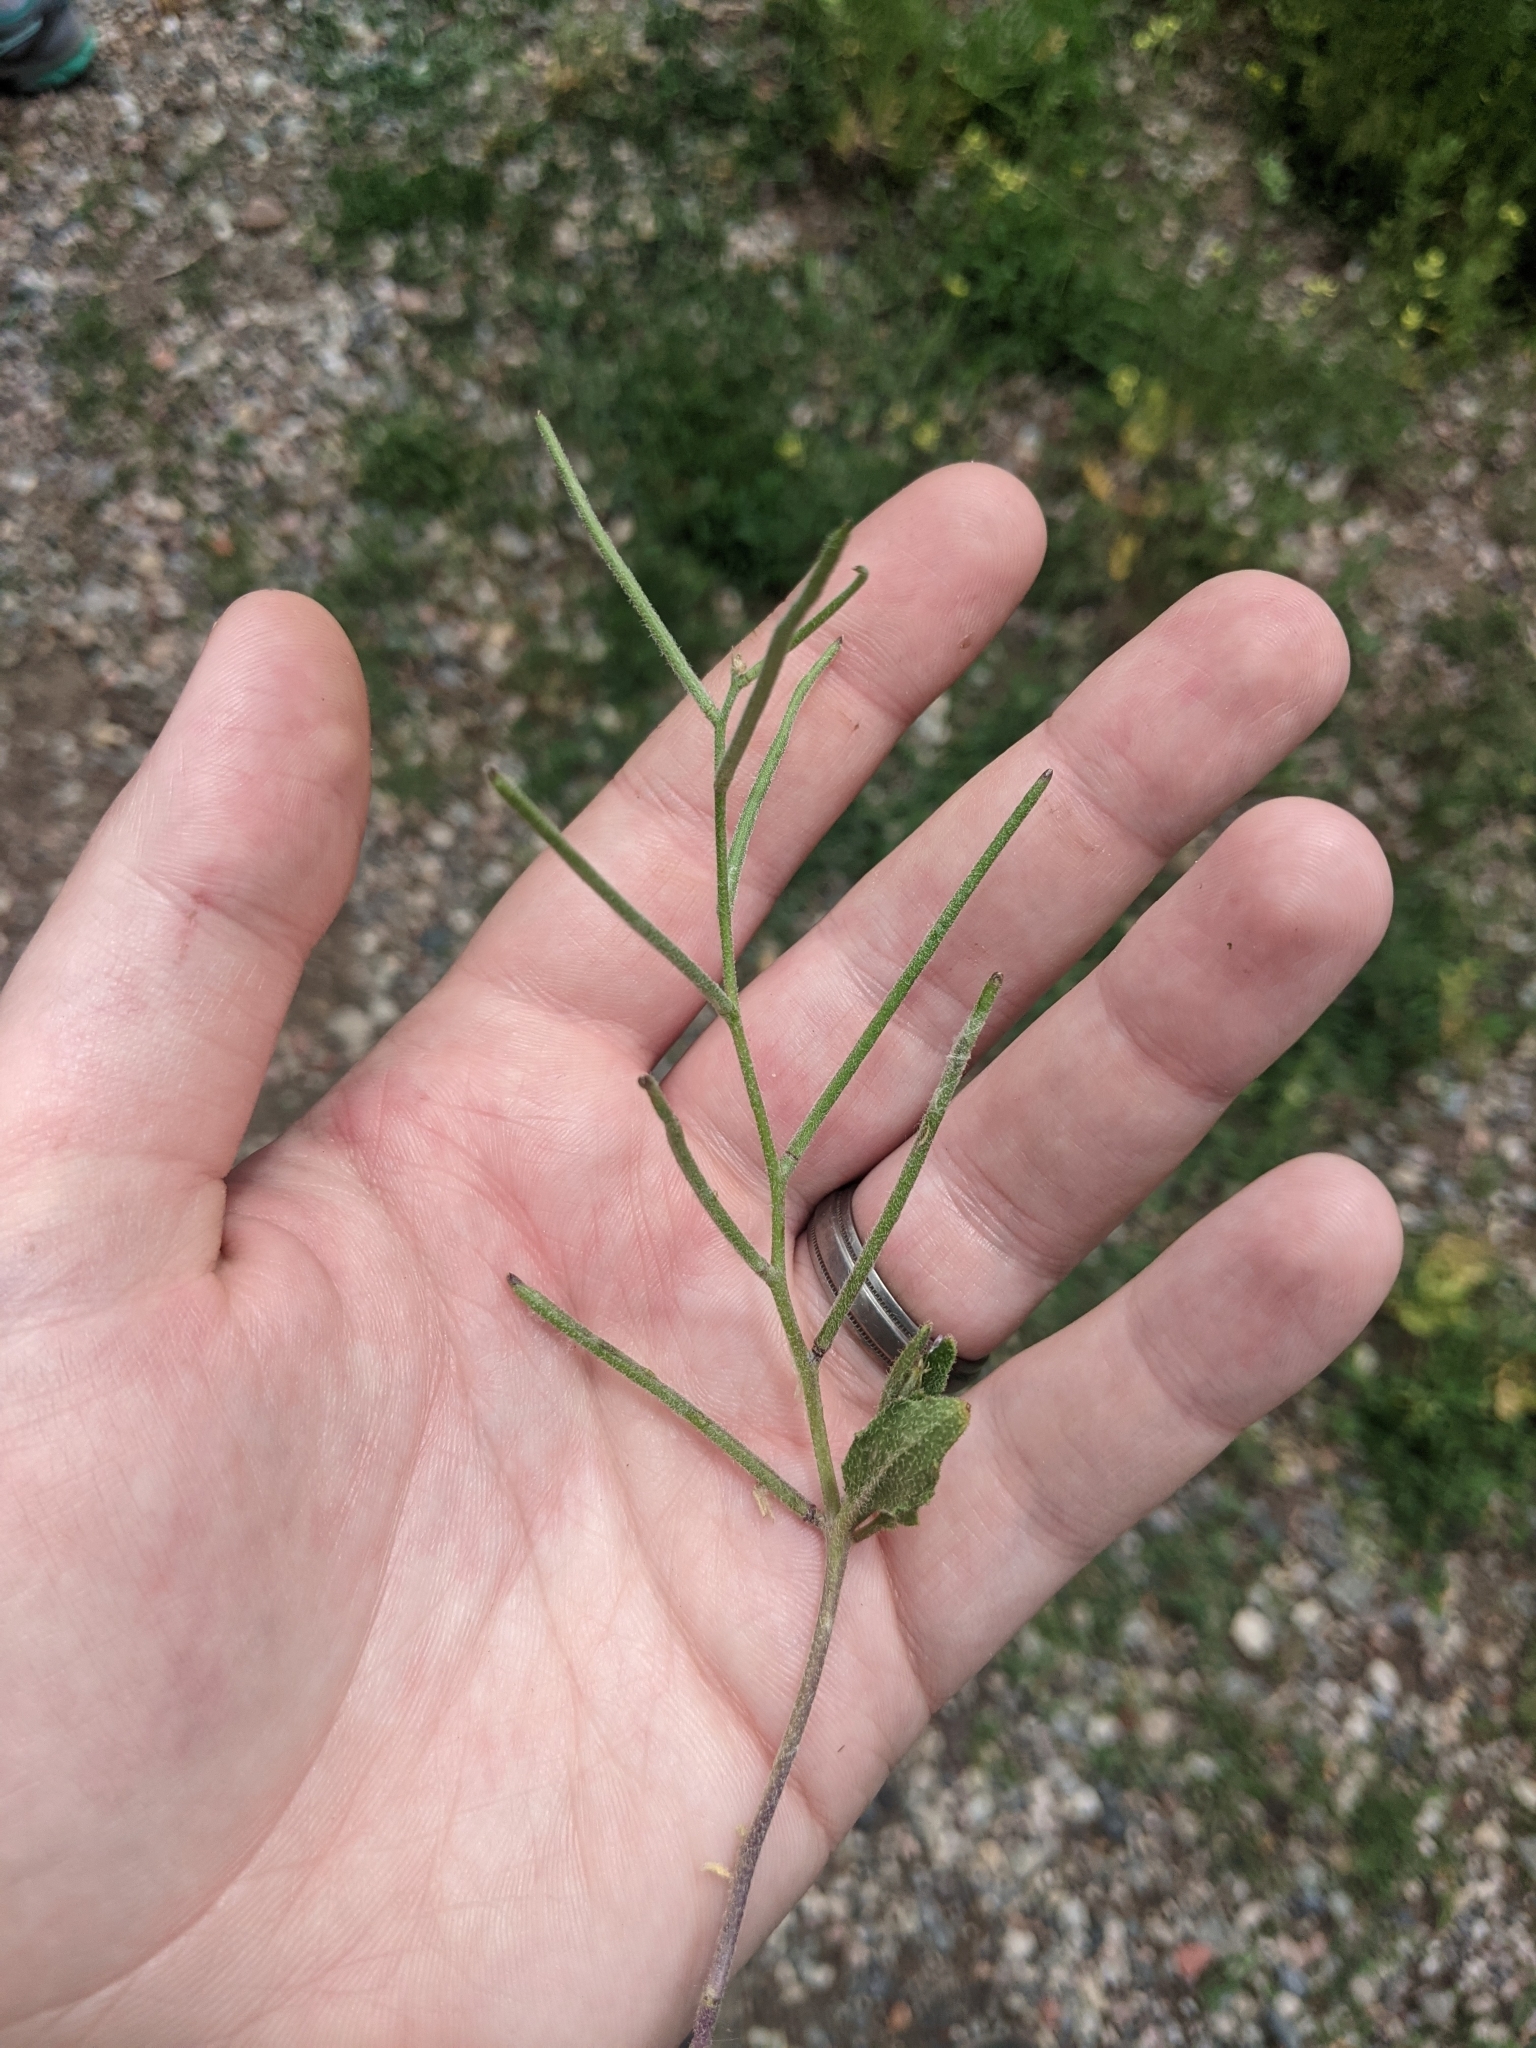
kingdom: Plantae
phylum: Tracheophyta
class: Magnoliopsida
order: Brassicales
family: Brassicaceae
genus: Strigosella
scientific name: Strigosella africana
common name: African mustard
